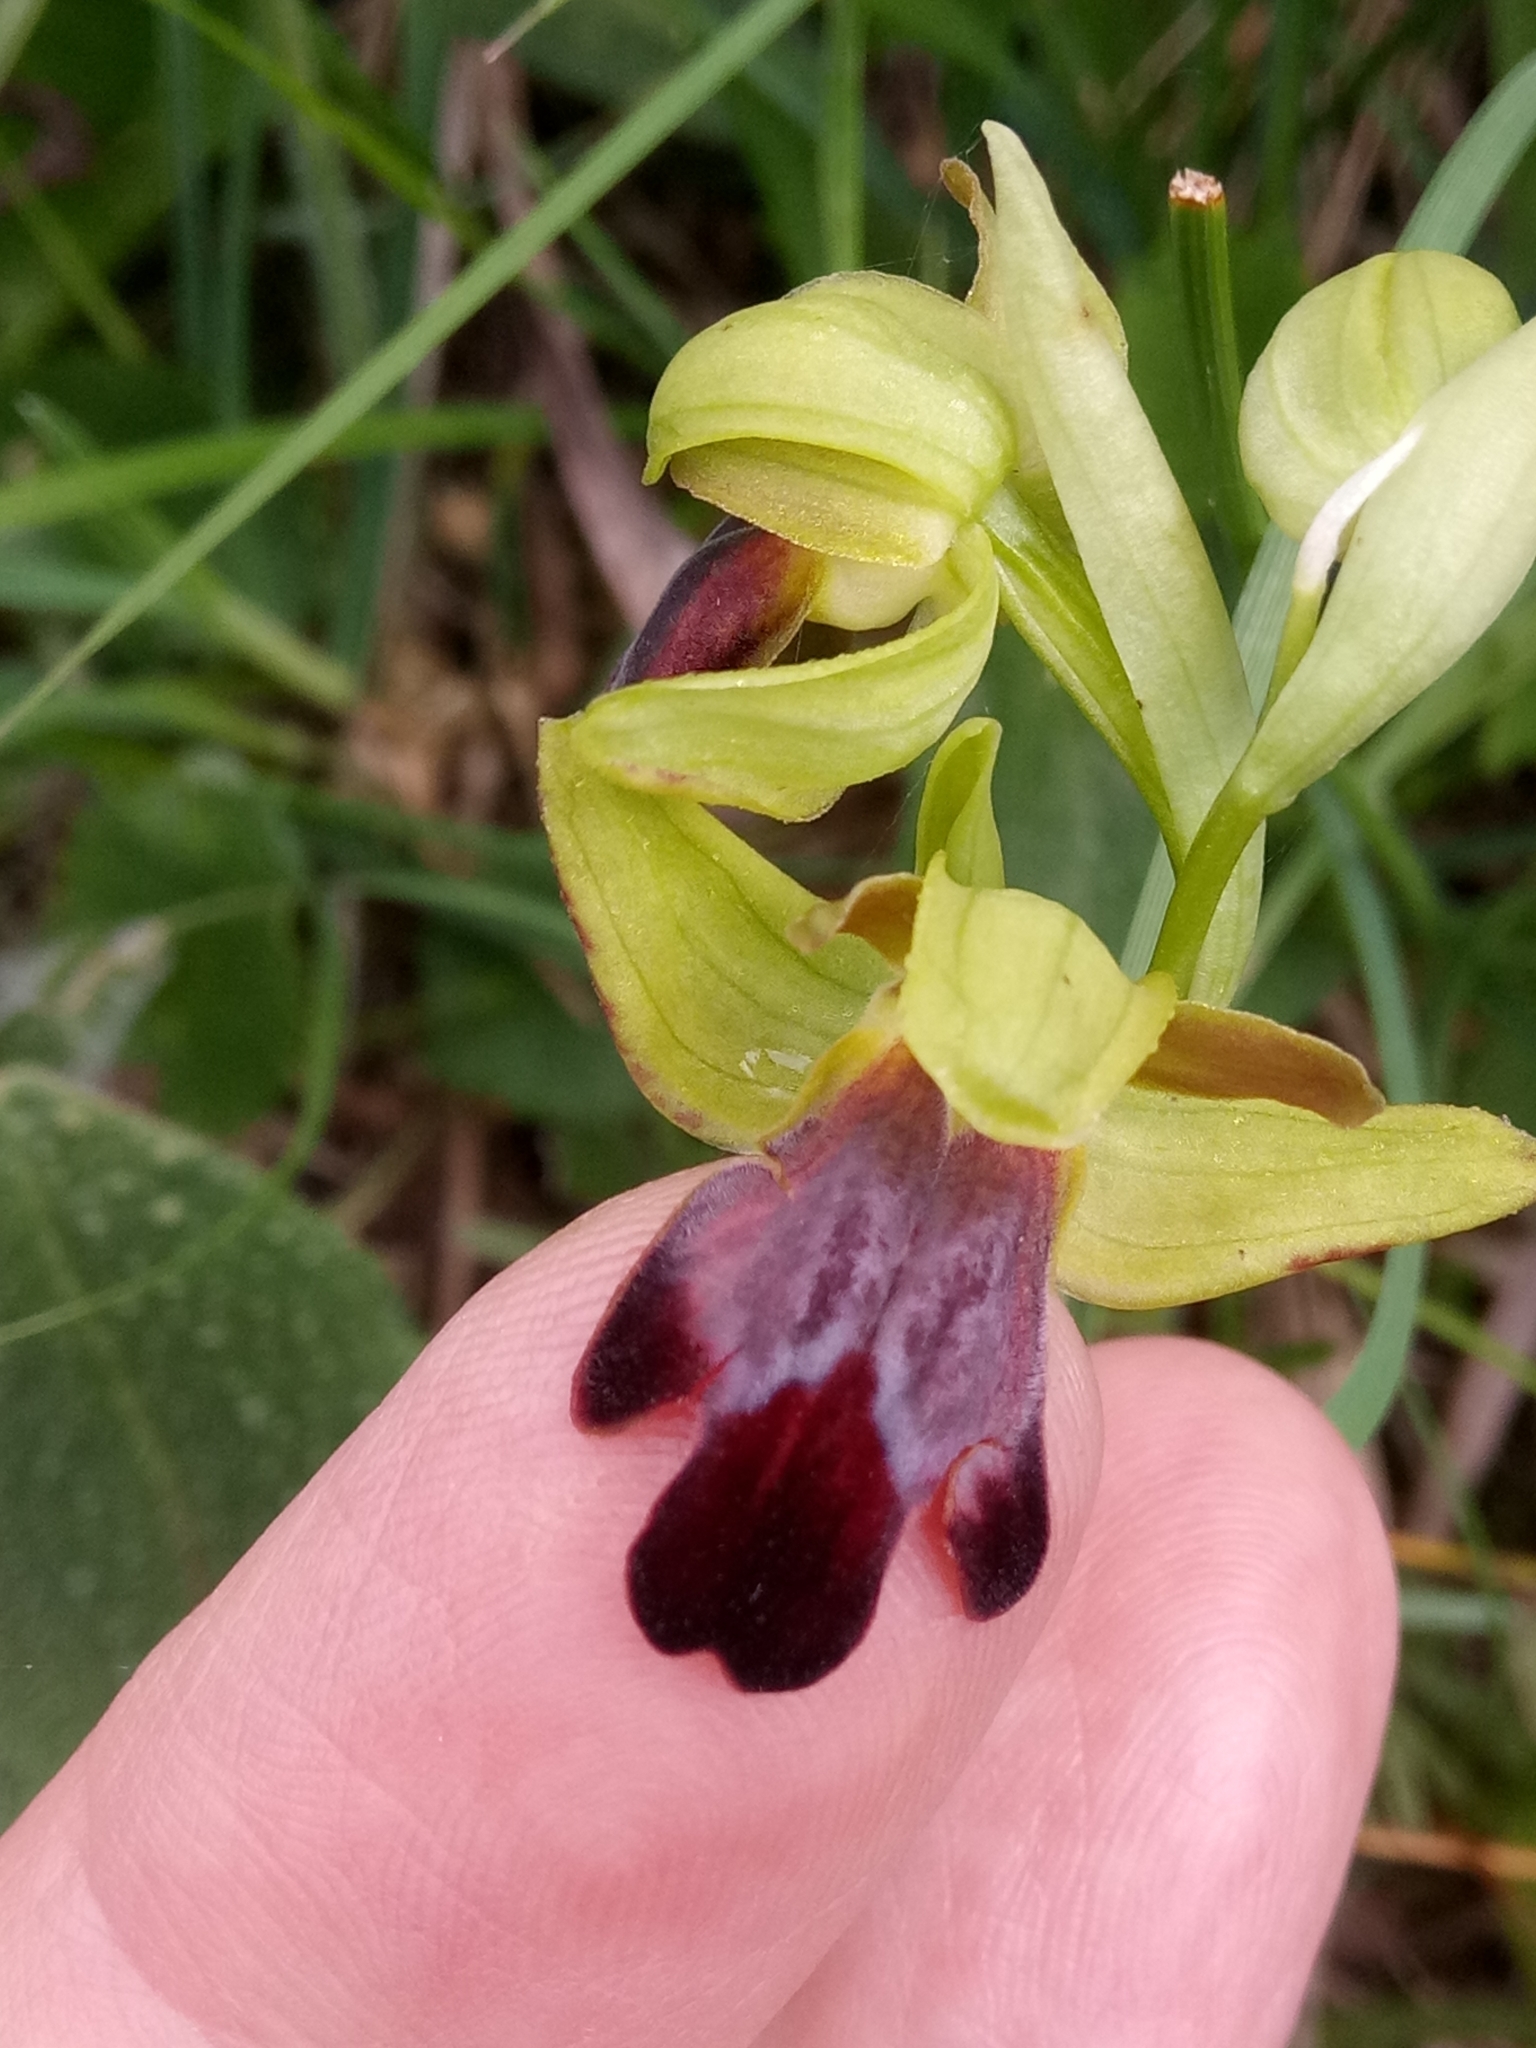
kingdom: Plantae
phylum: Tracheophyta
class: Liliopsida
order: Asparagales
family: Orchidaceae
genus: Ophrys
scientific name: Ophrys fusca
